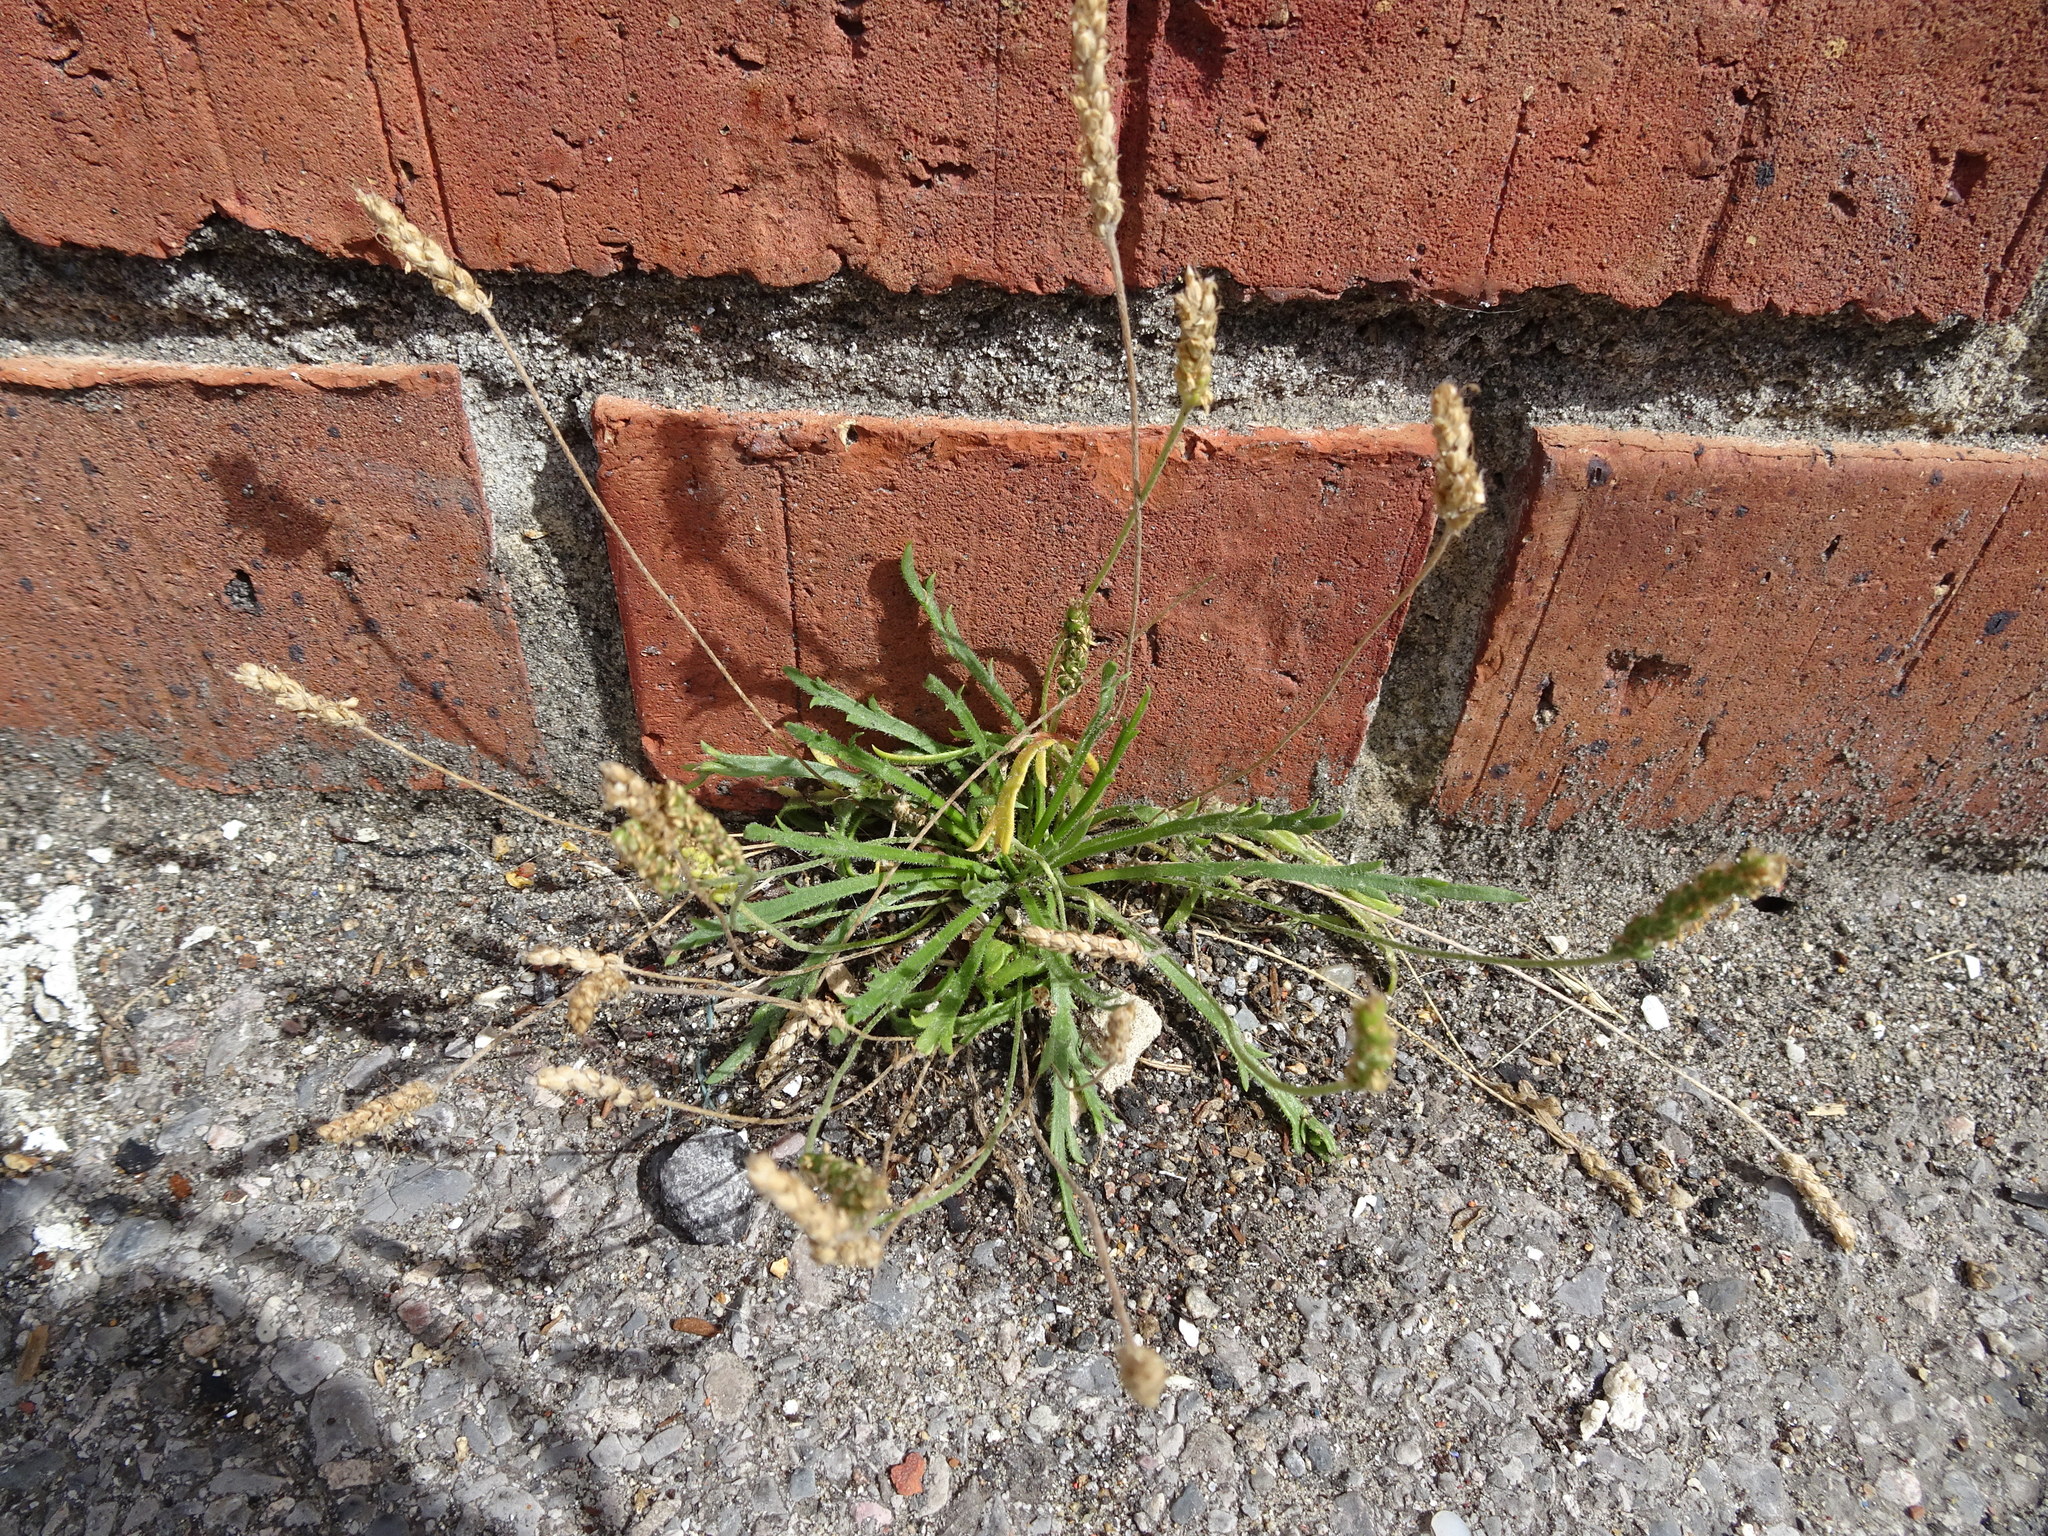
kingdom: Plantae
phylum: Tracheophyta
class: Magnoliopsida
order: Lamiales
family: Plantaginaceae
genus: Plantago
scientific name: Plantago coronopus
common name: Buck's-horn plantain
